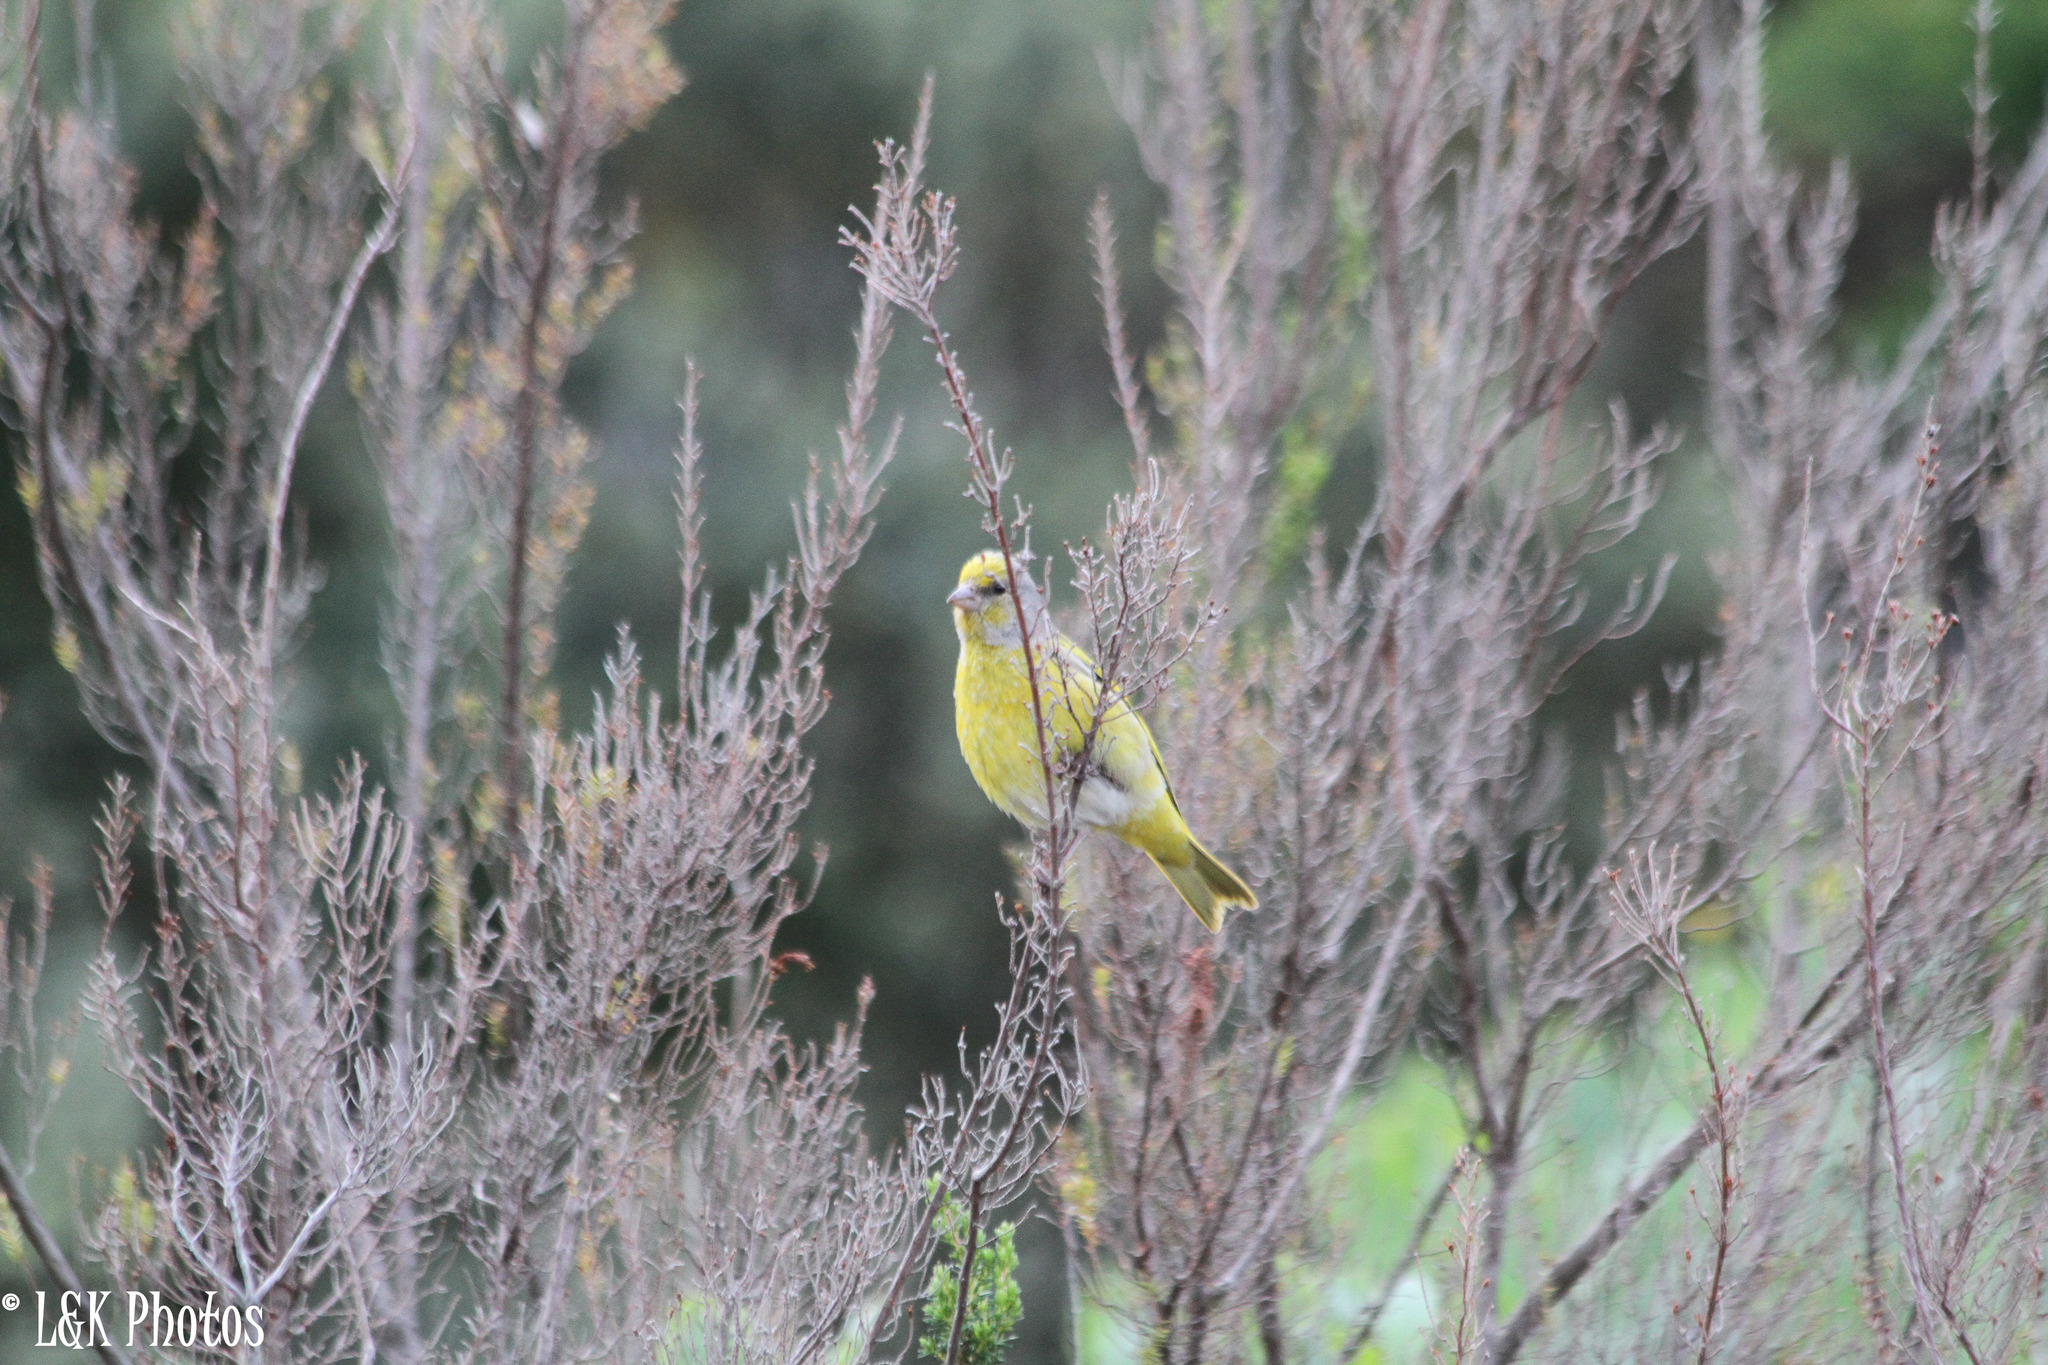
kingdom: Animalia
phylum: Chordata
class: Aves
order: Passeriformes
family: Fringillidae
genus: Serinus
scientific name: Serinus canicollis
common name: Cape canary
